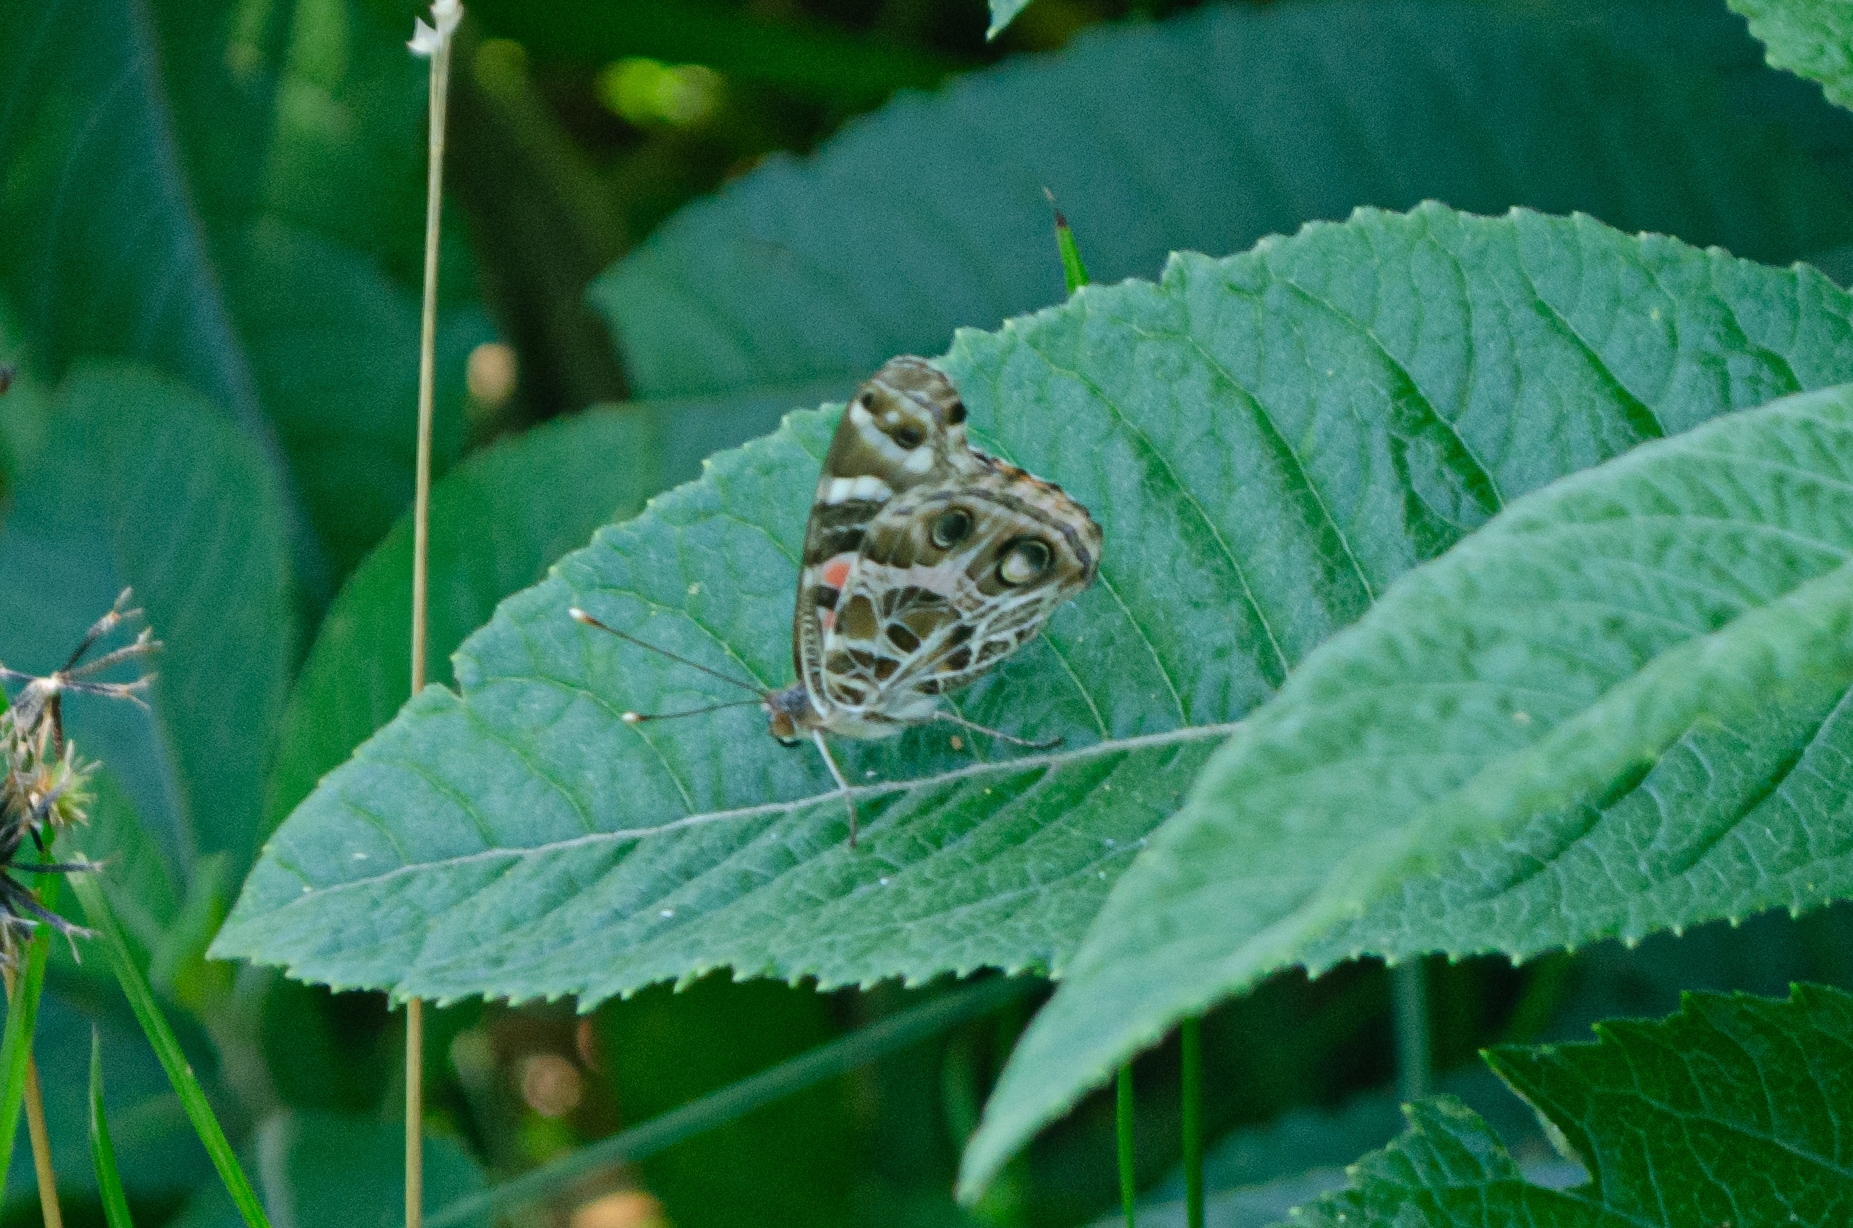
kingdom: Animalia
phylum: Arthropoda
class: Insecta
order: Lepidoptera
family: Nymphalidae
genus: Vanessa
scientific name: Vanessa braziliensis
